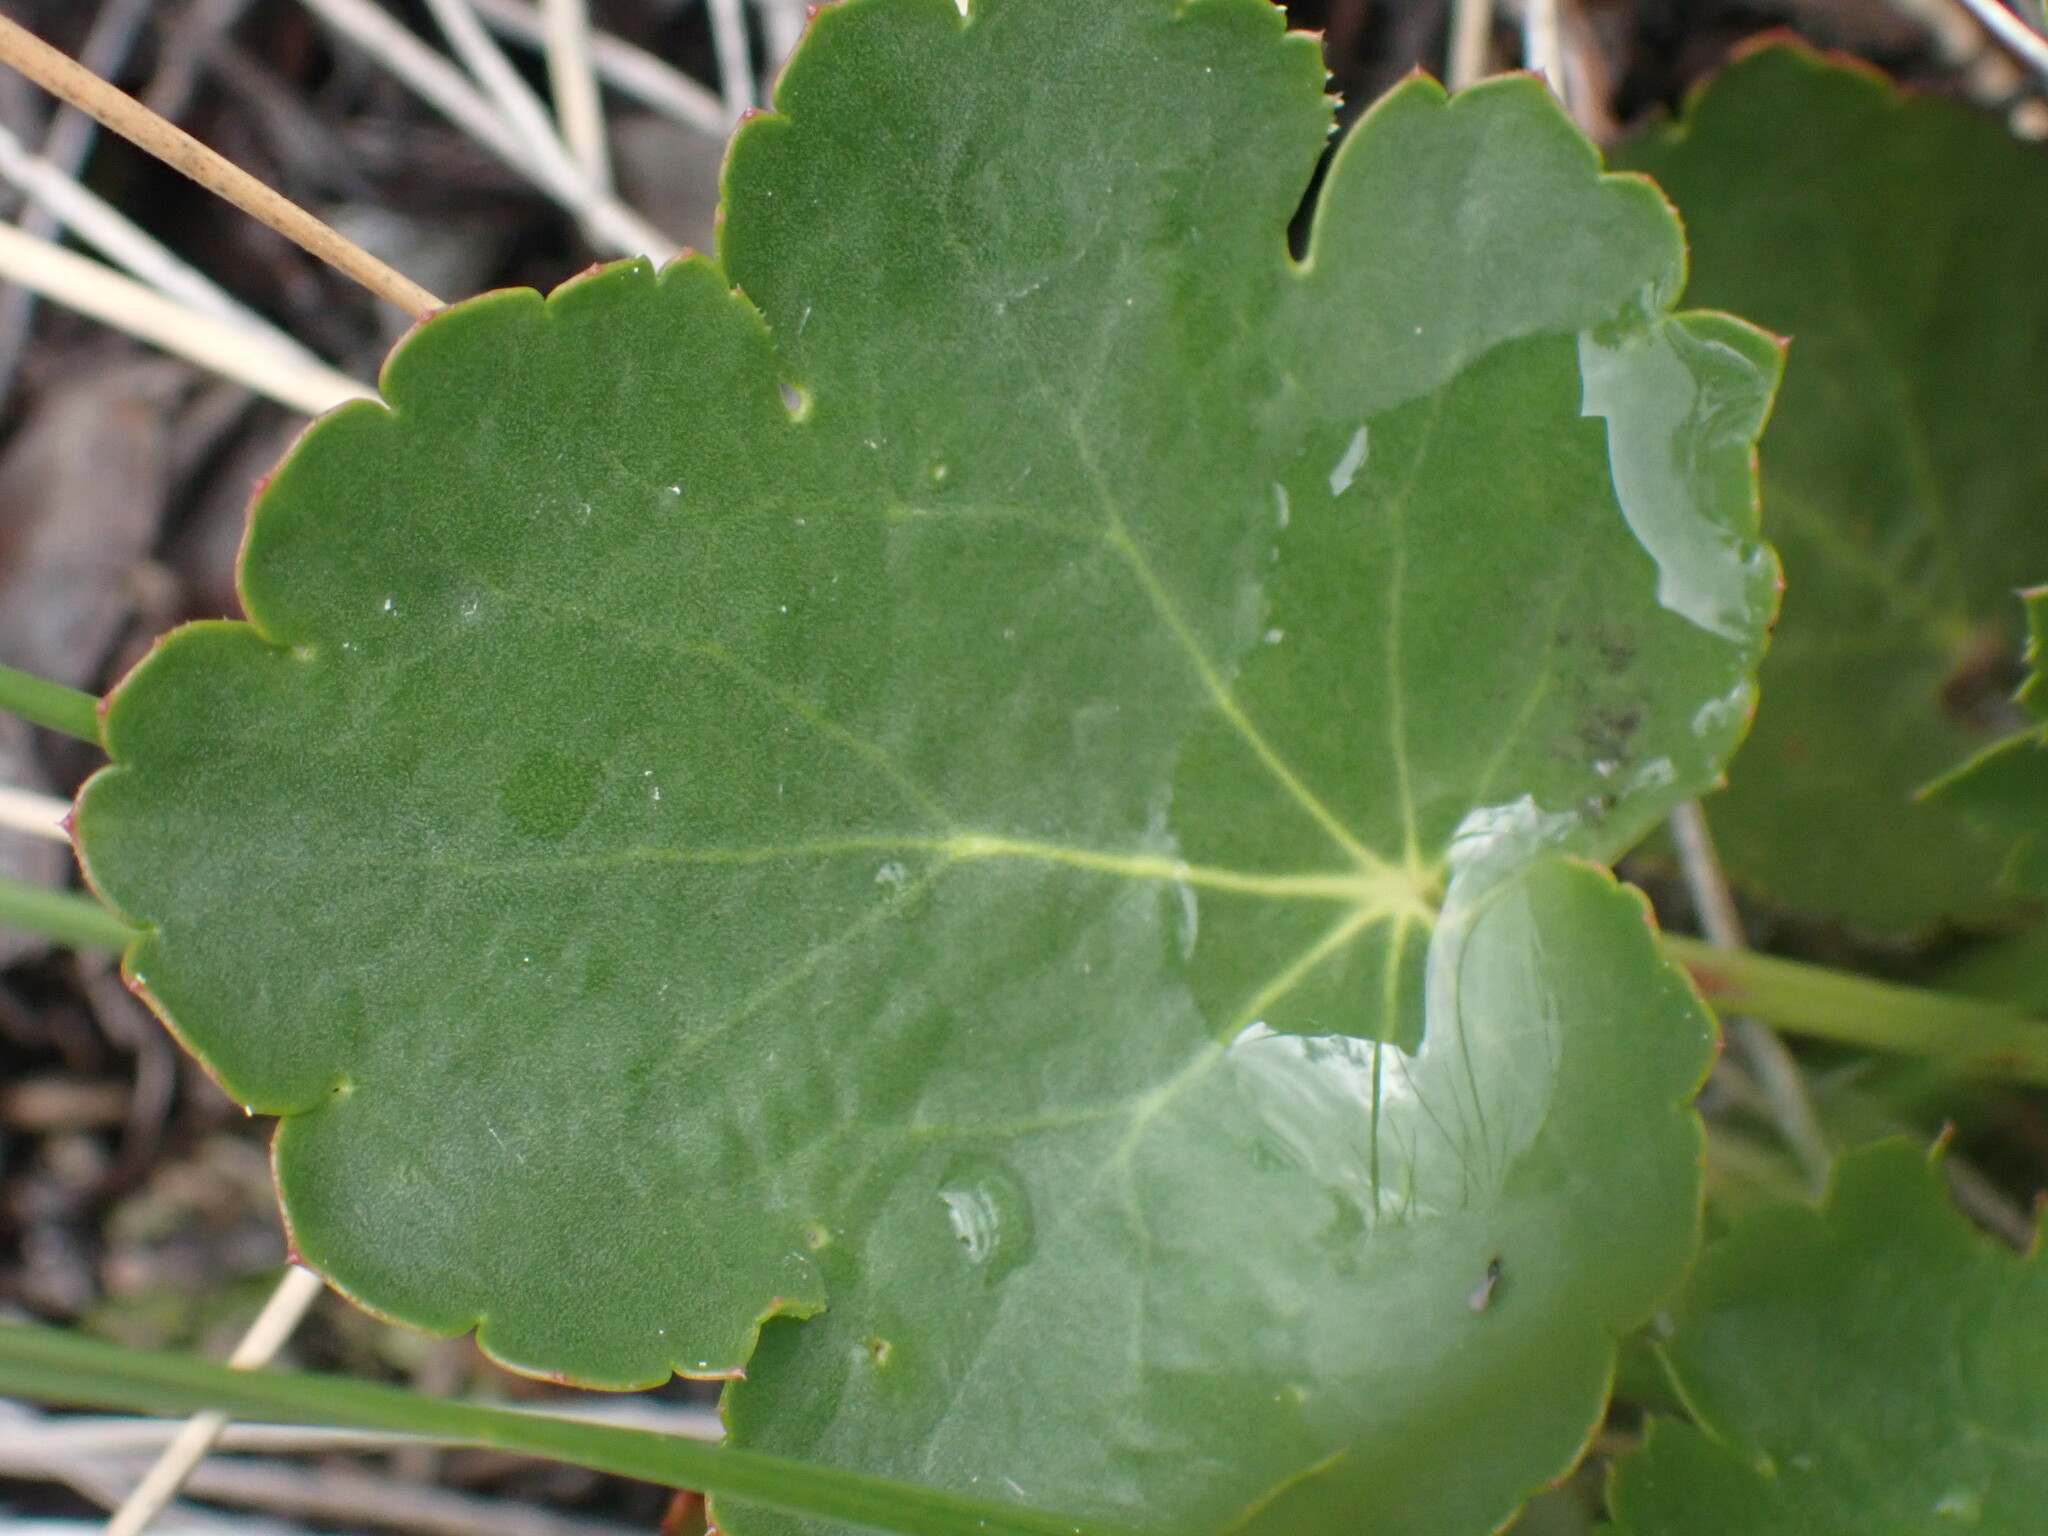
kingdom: Plantae
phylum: Tracheophyta
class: Magnoliopsida
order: Saxifragales
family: Saxifragaceae
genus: Heuchera
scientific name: Heuchera cylindrica
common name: Mat alumroot
